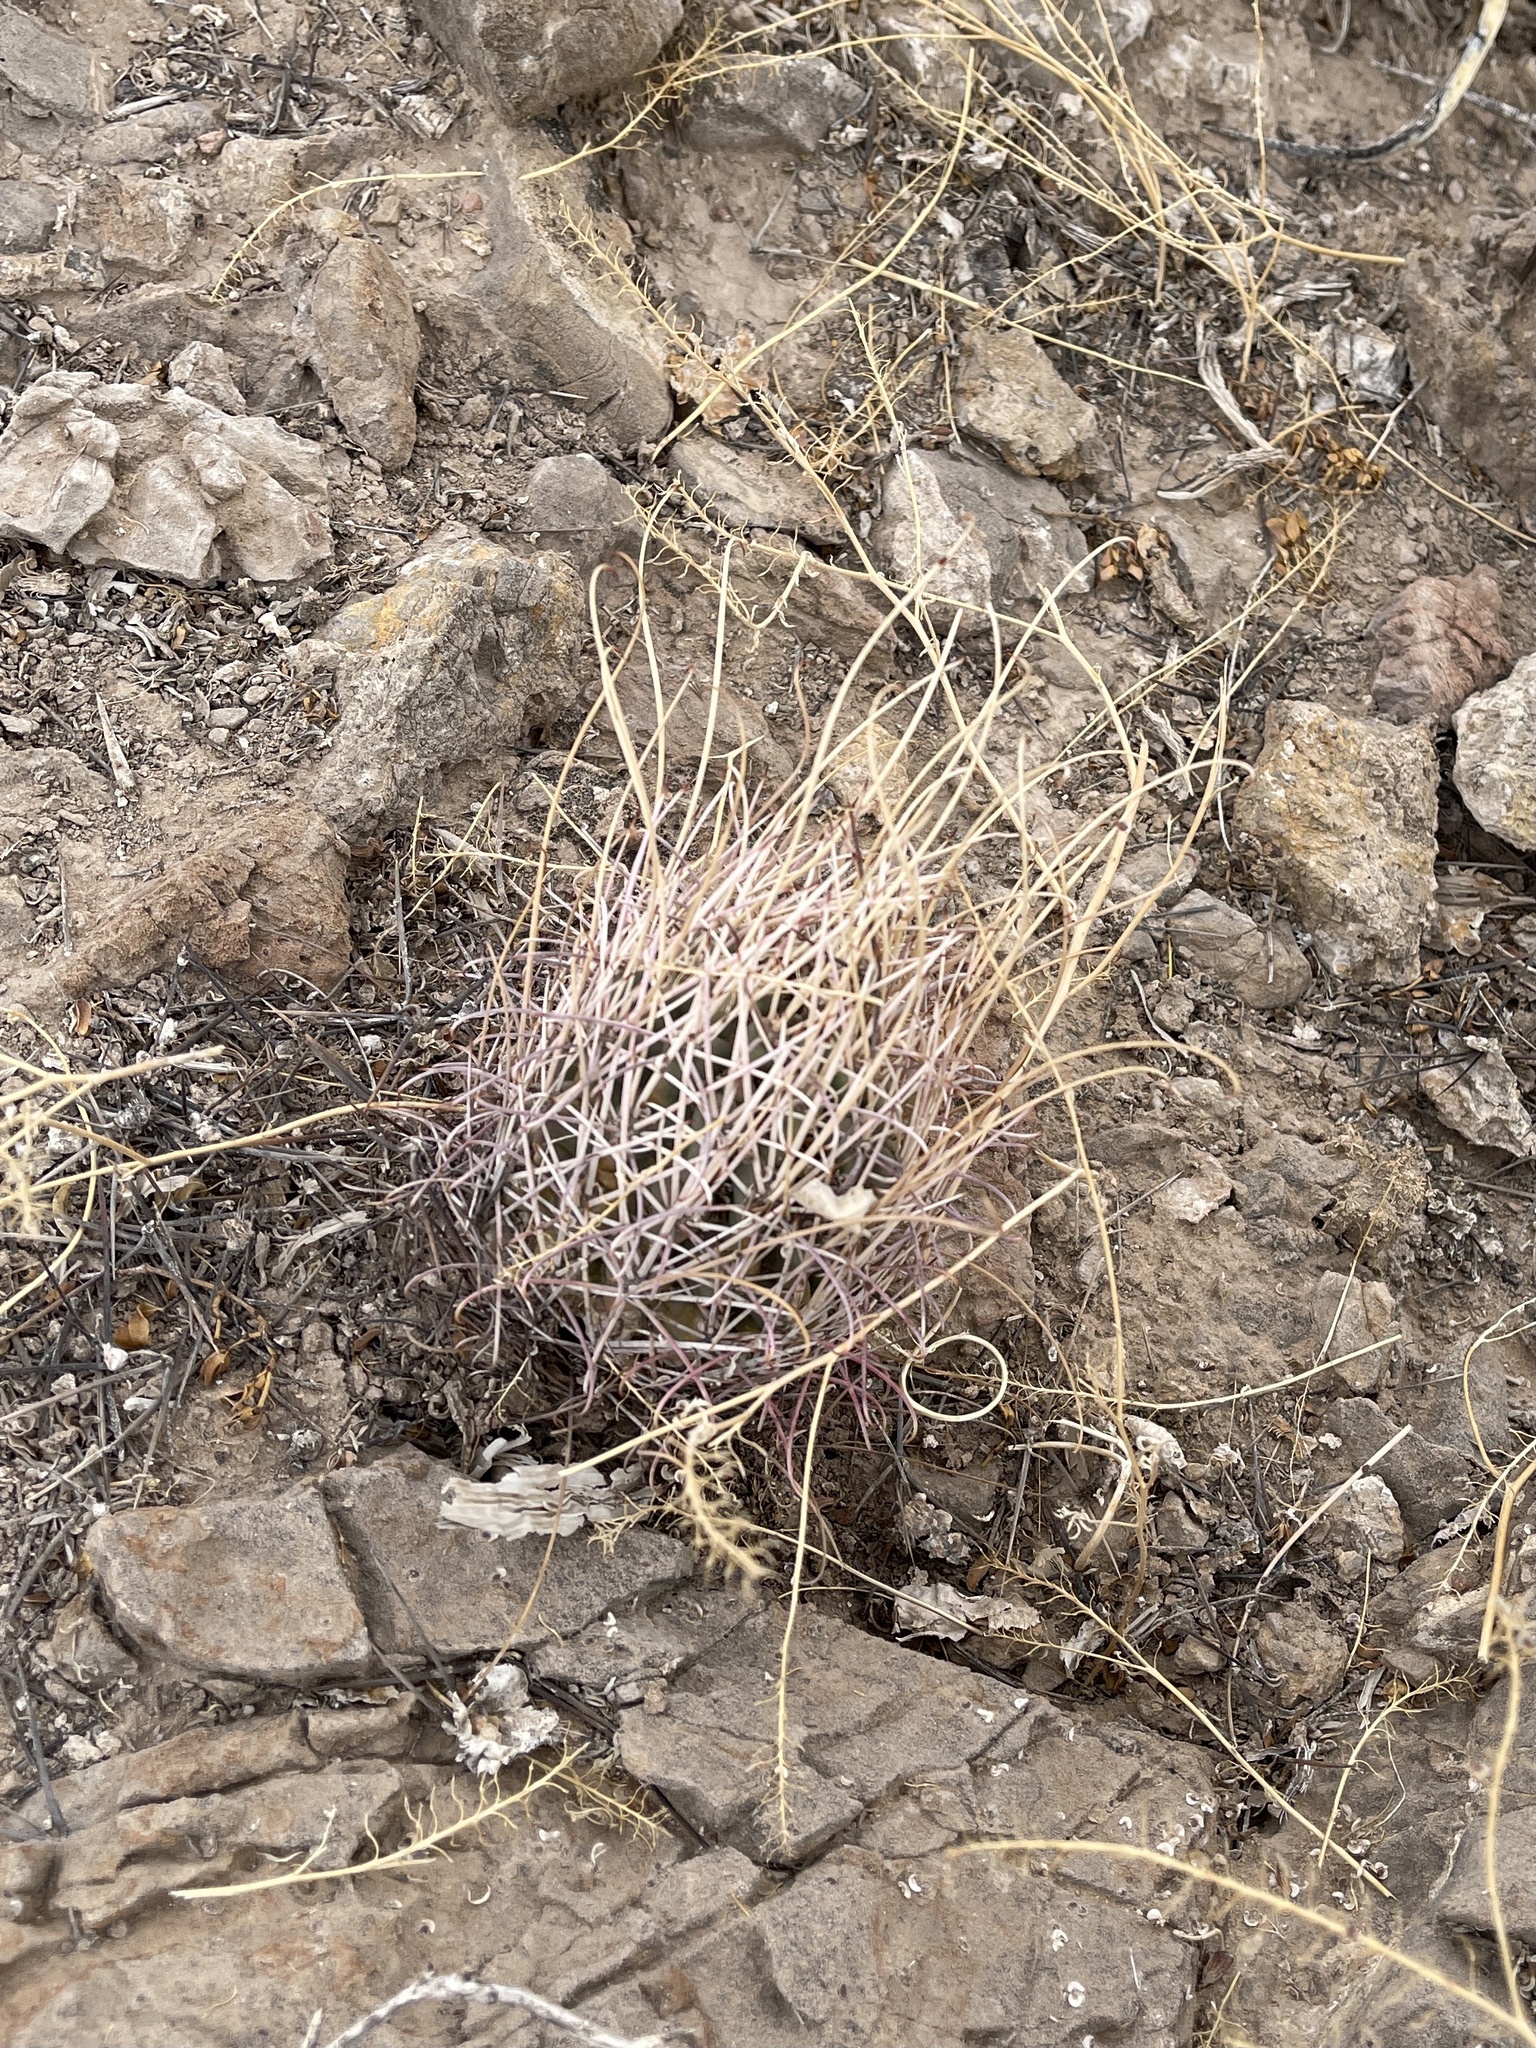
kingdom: Plantae
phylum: Tracheophyta
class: Magnoliopsida
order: Caryophyllales
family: Cactaceae
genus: Ferocactus
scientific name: Ferocactus uncinatus
